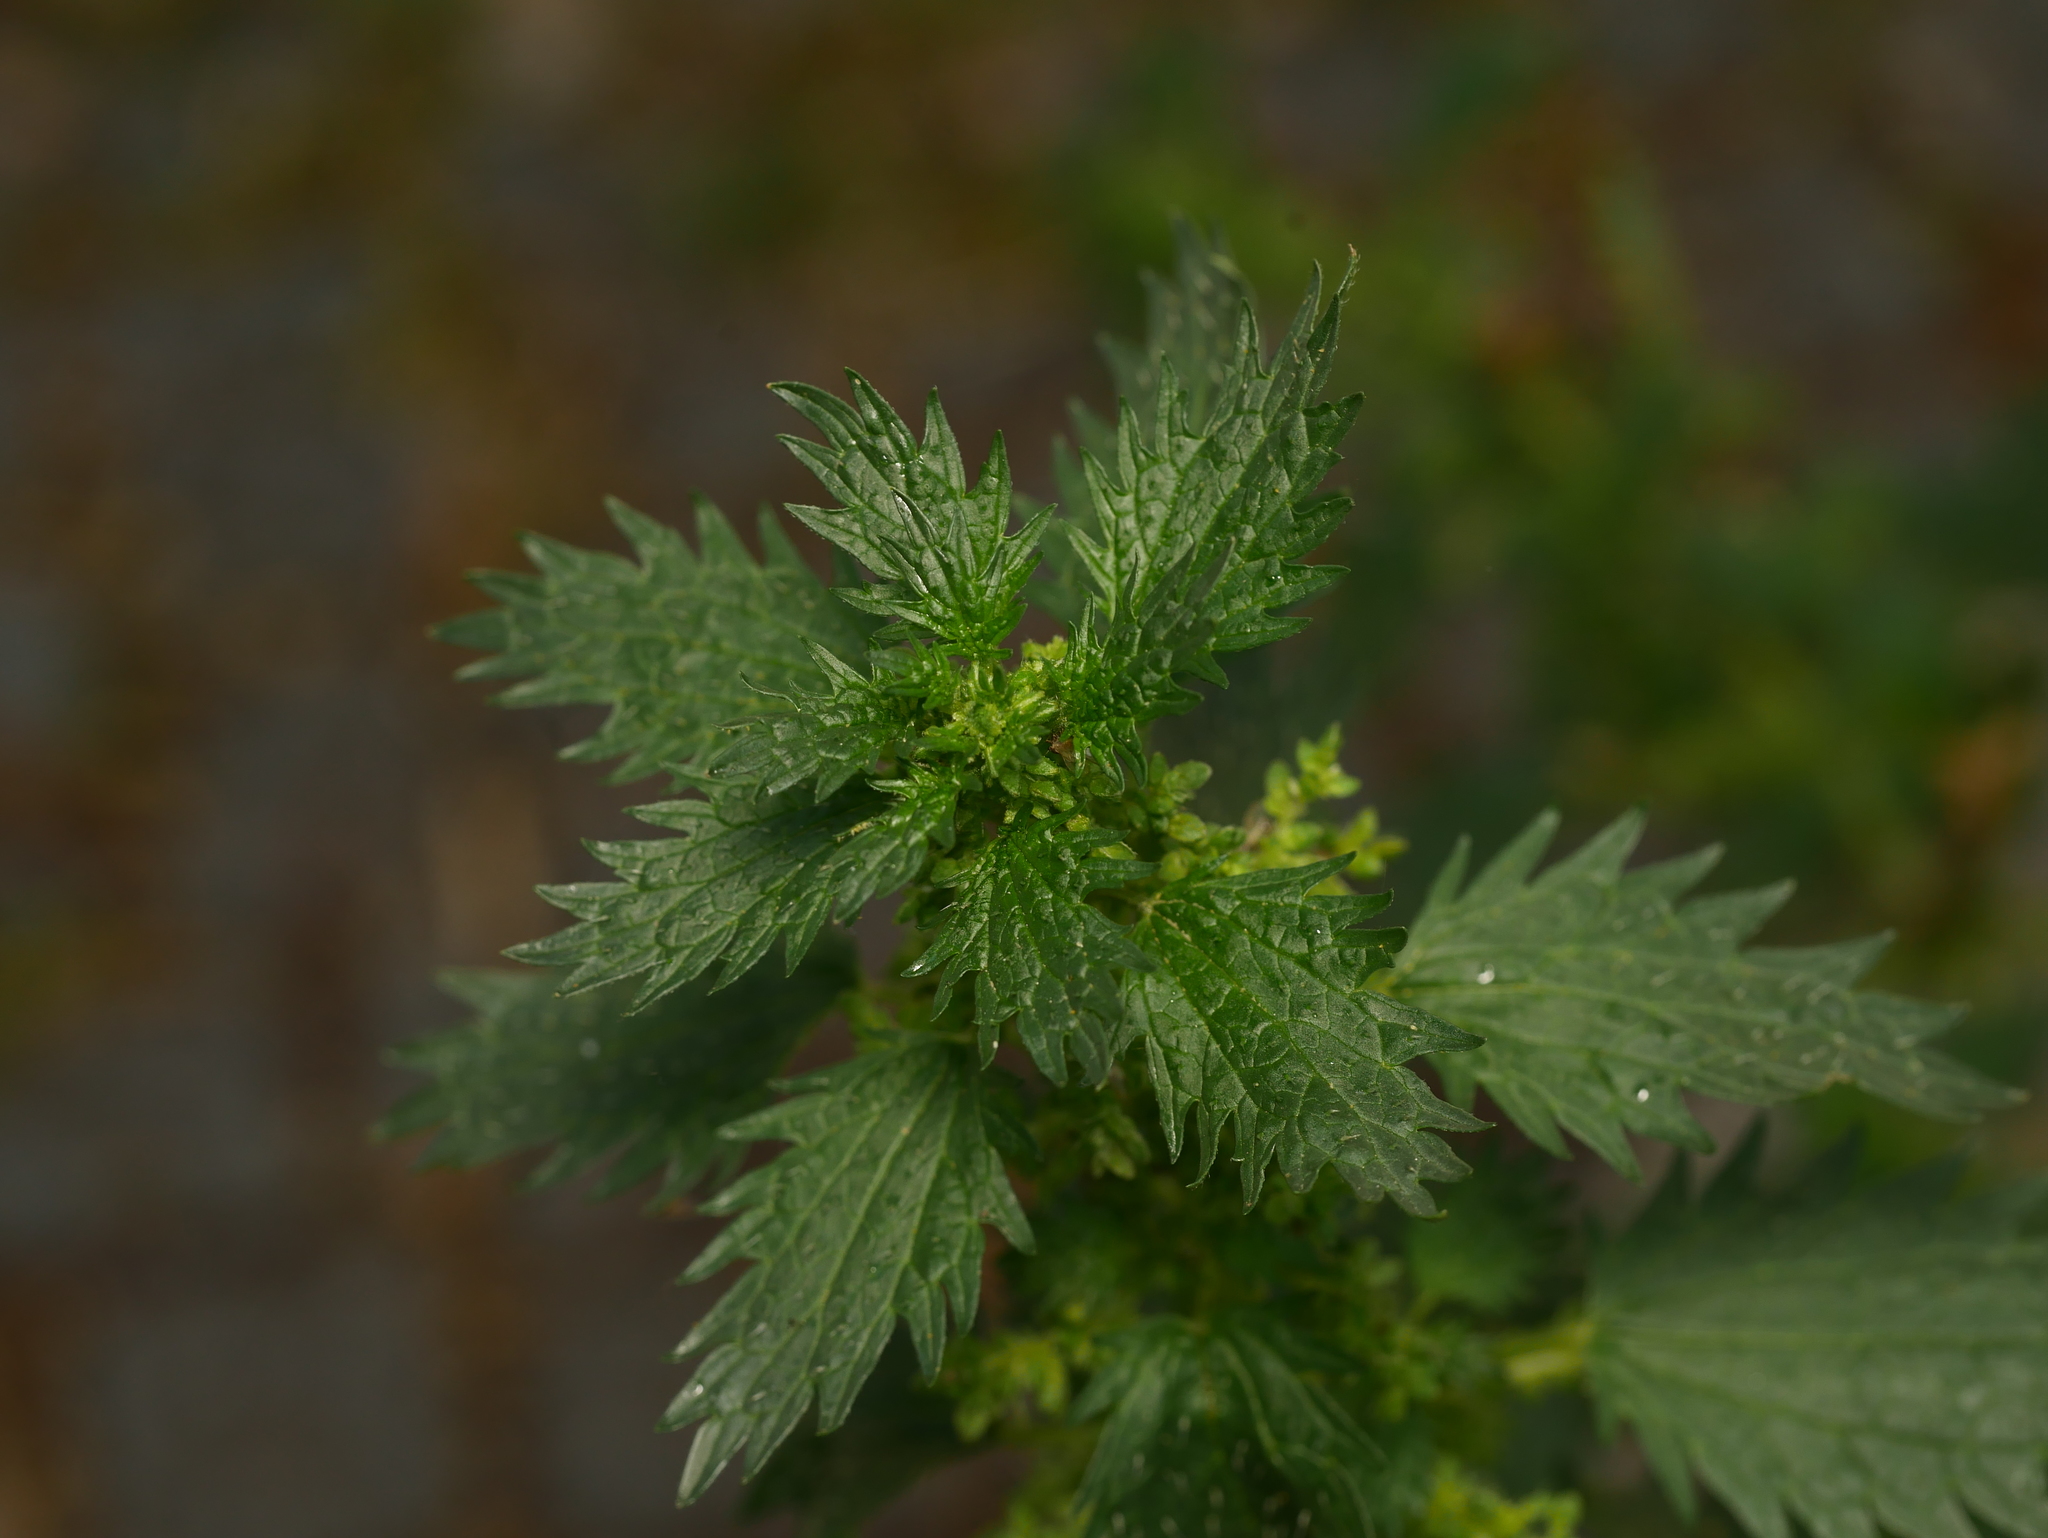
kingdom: Plantae
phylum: Tracheophyta
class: Magnoliopsida
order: Rosales
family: Urticaceae
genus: Urtica
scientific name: Urtica urens
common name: Dwarf nettle
